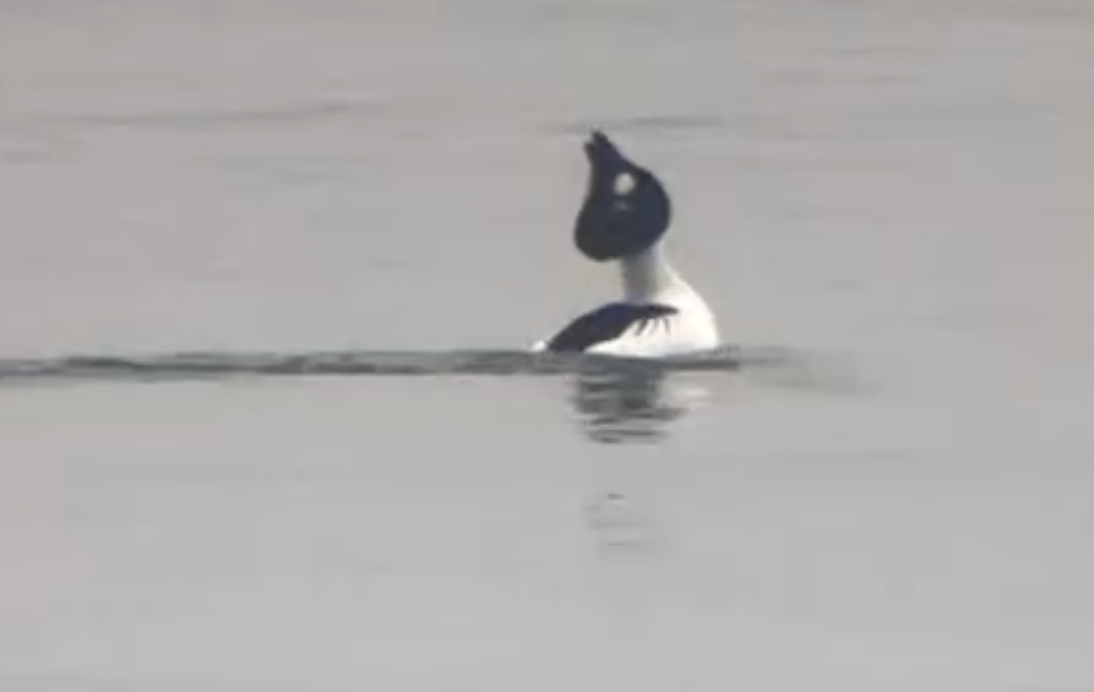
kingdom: Animalia
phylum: Chordata
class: Aves
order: Anseriformes
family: Anatidae
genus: Bucephala
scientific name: Bucephala clangula
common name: Common goldeneye
